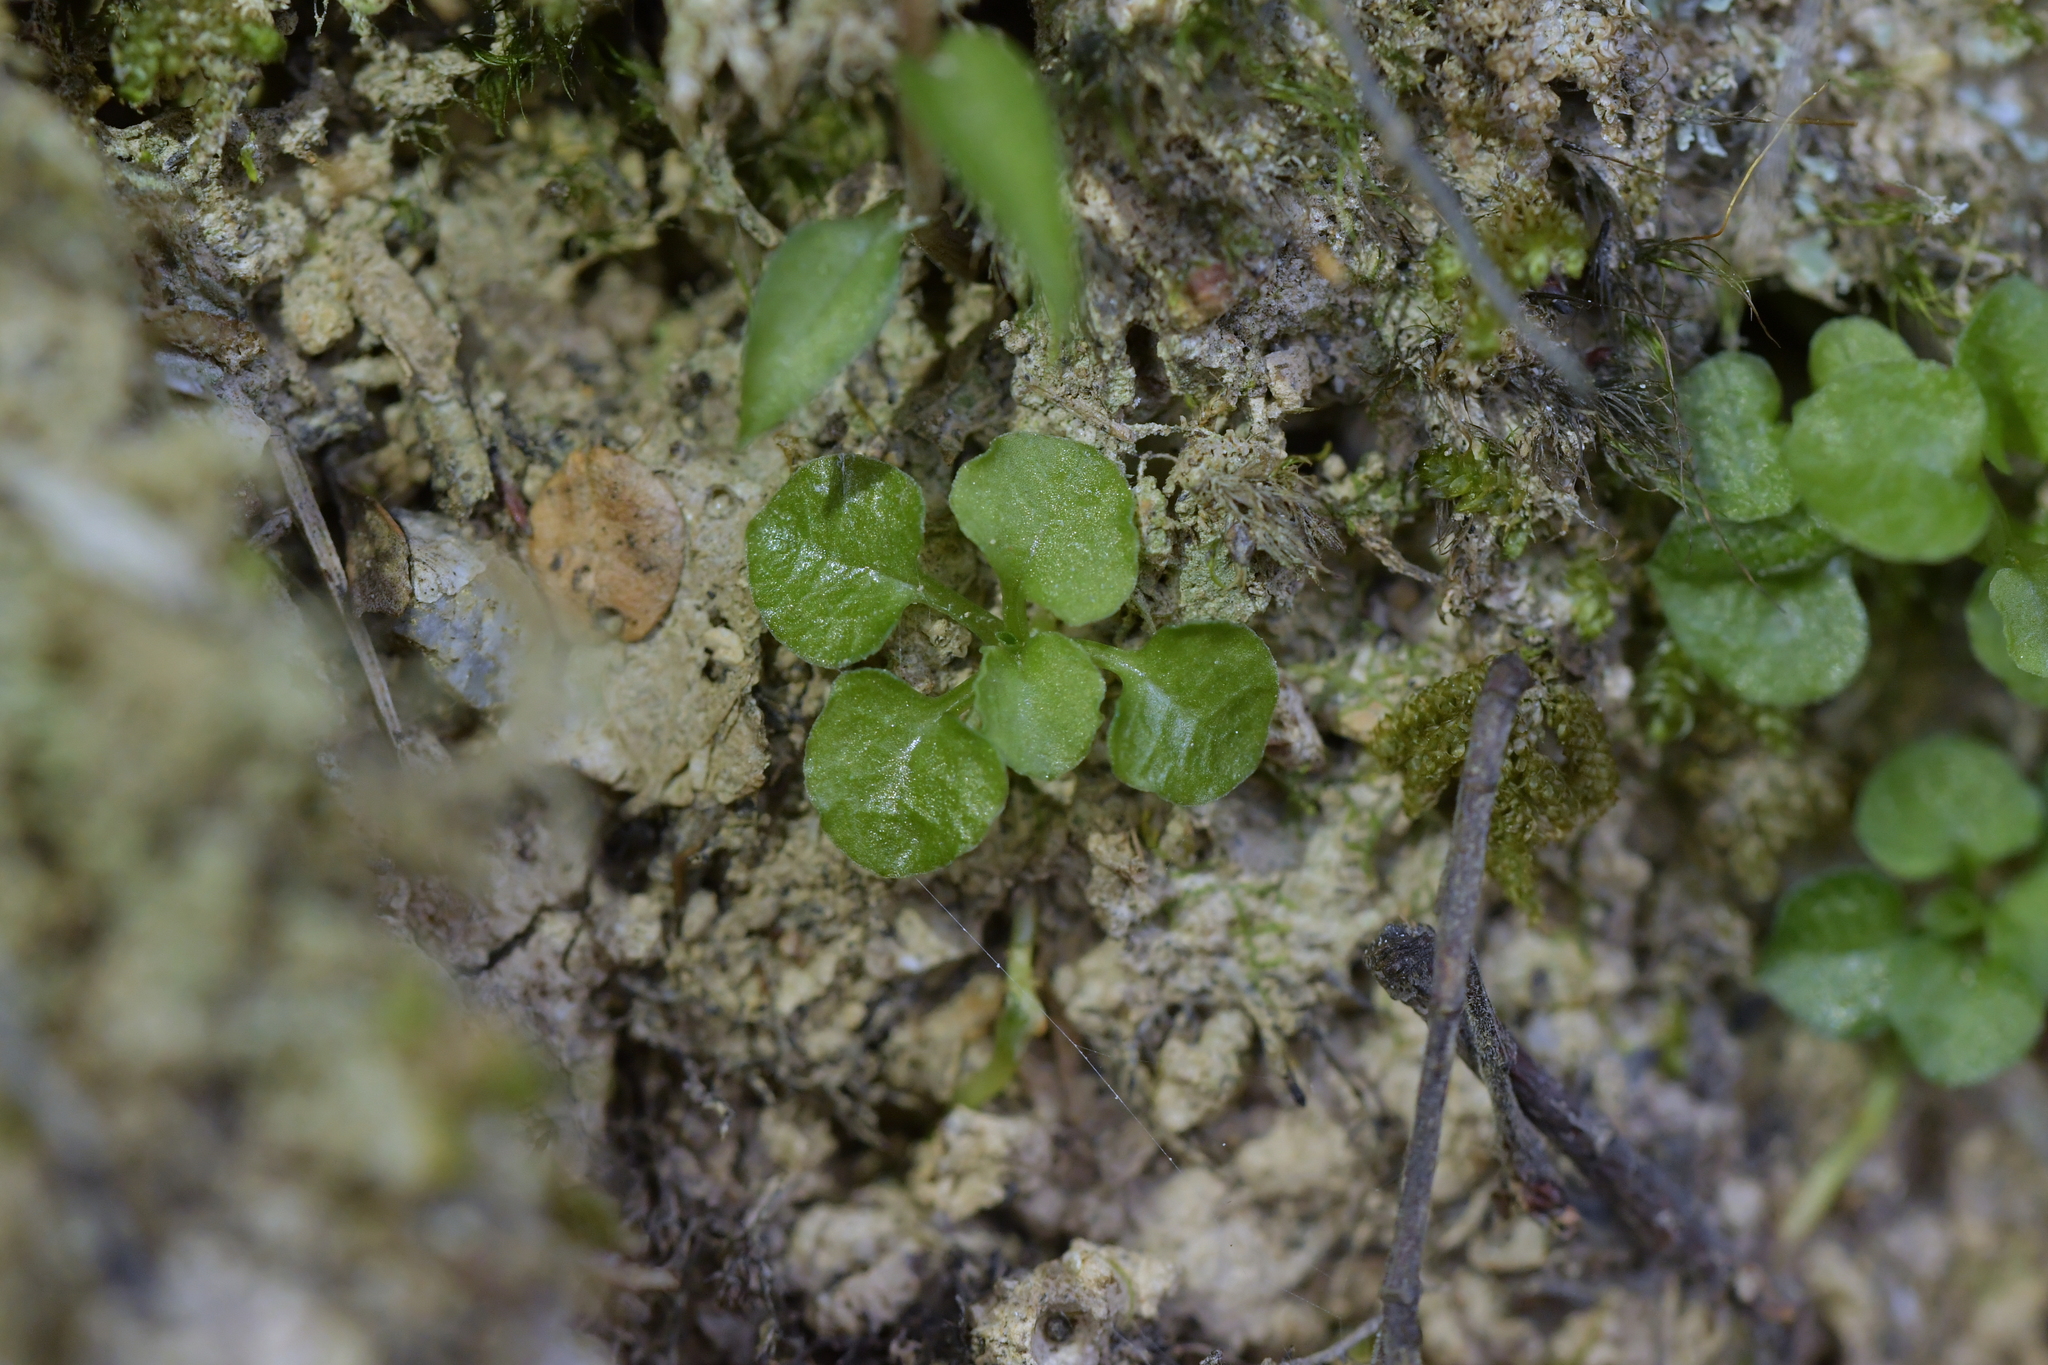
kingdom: Plantae
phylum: Tracheophyta
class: Liliopsida
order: Asparagales
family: Orchidaceae
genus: Pterostylis
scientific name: Pterostylis alobula
